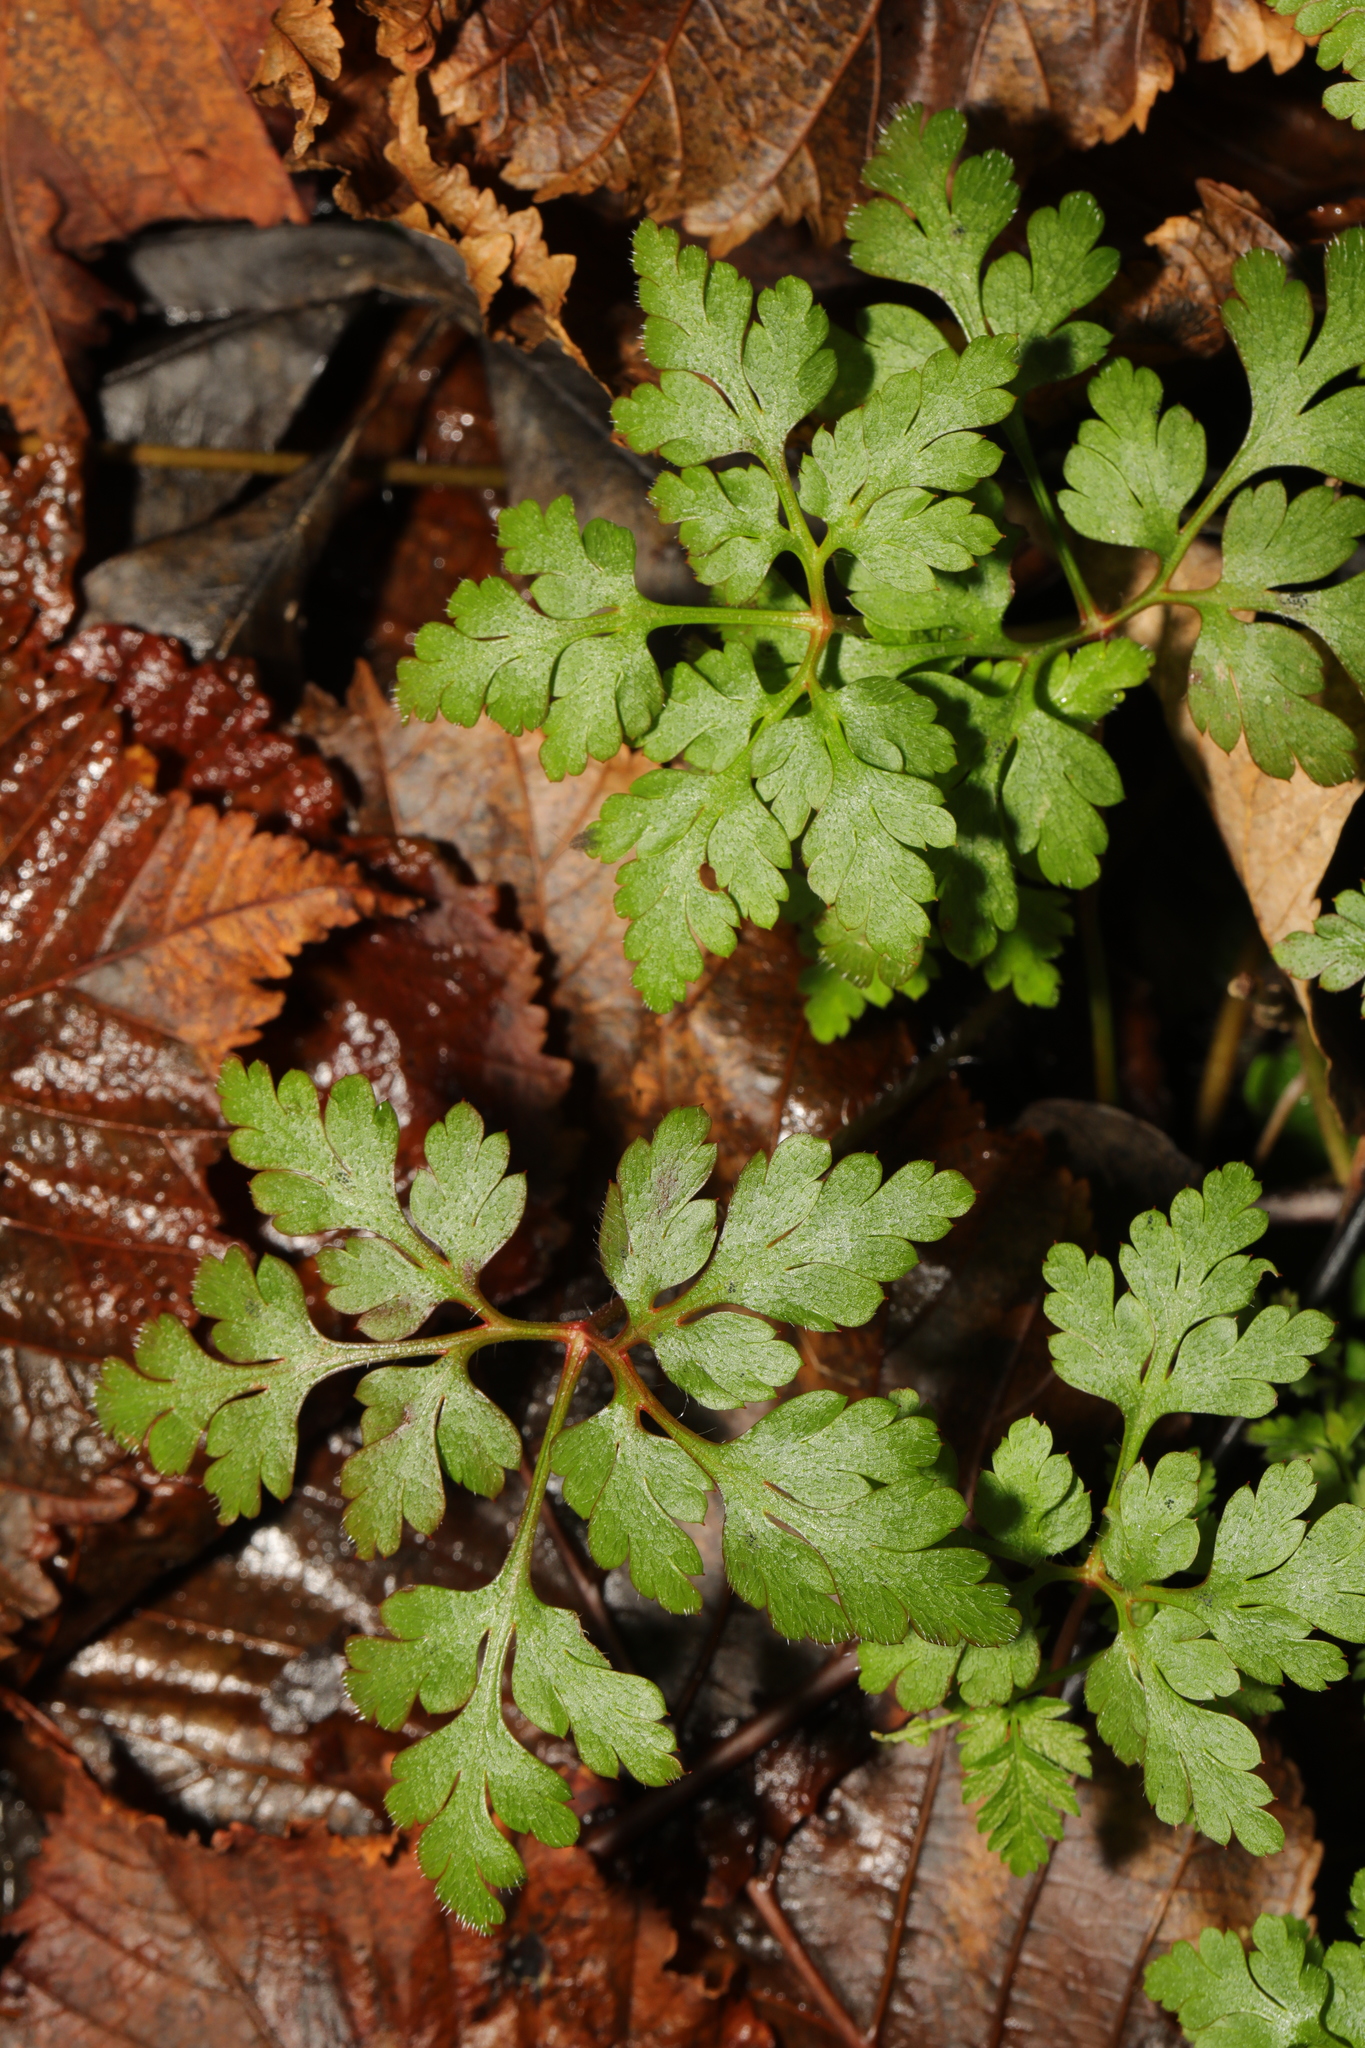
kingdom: Plantae
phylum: Tracheophyta
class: Magnoliopsida
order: Geraniales
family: Geraniaceae
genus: Geranium
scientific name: Geranium robertianum
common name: Herb-robert
